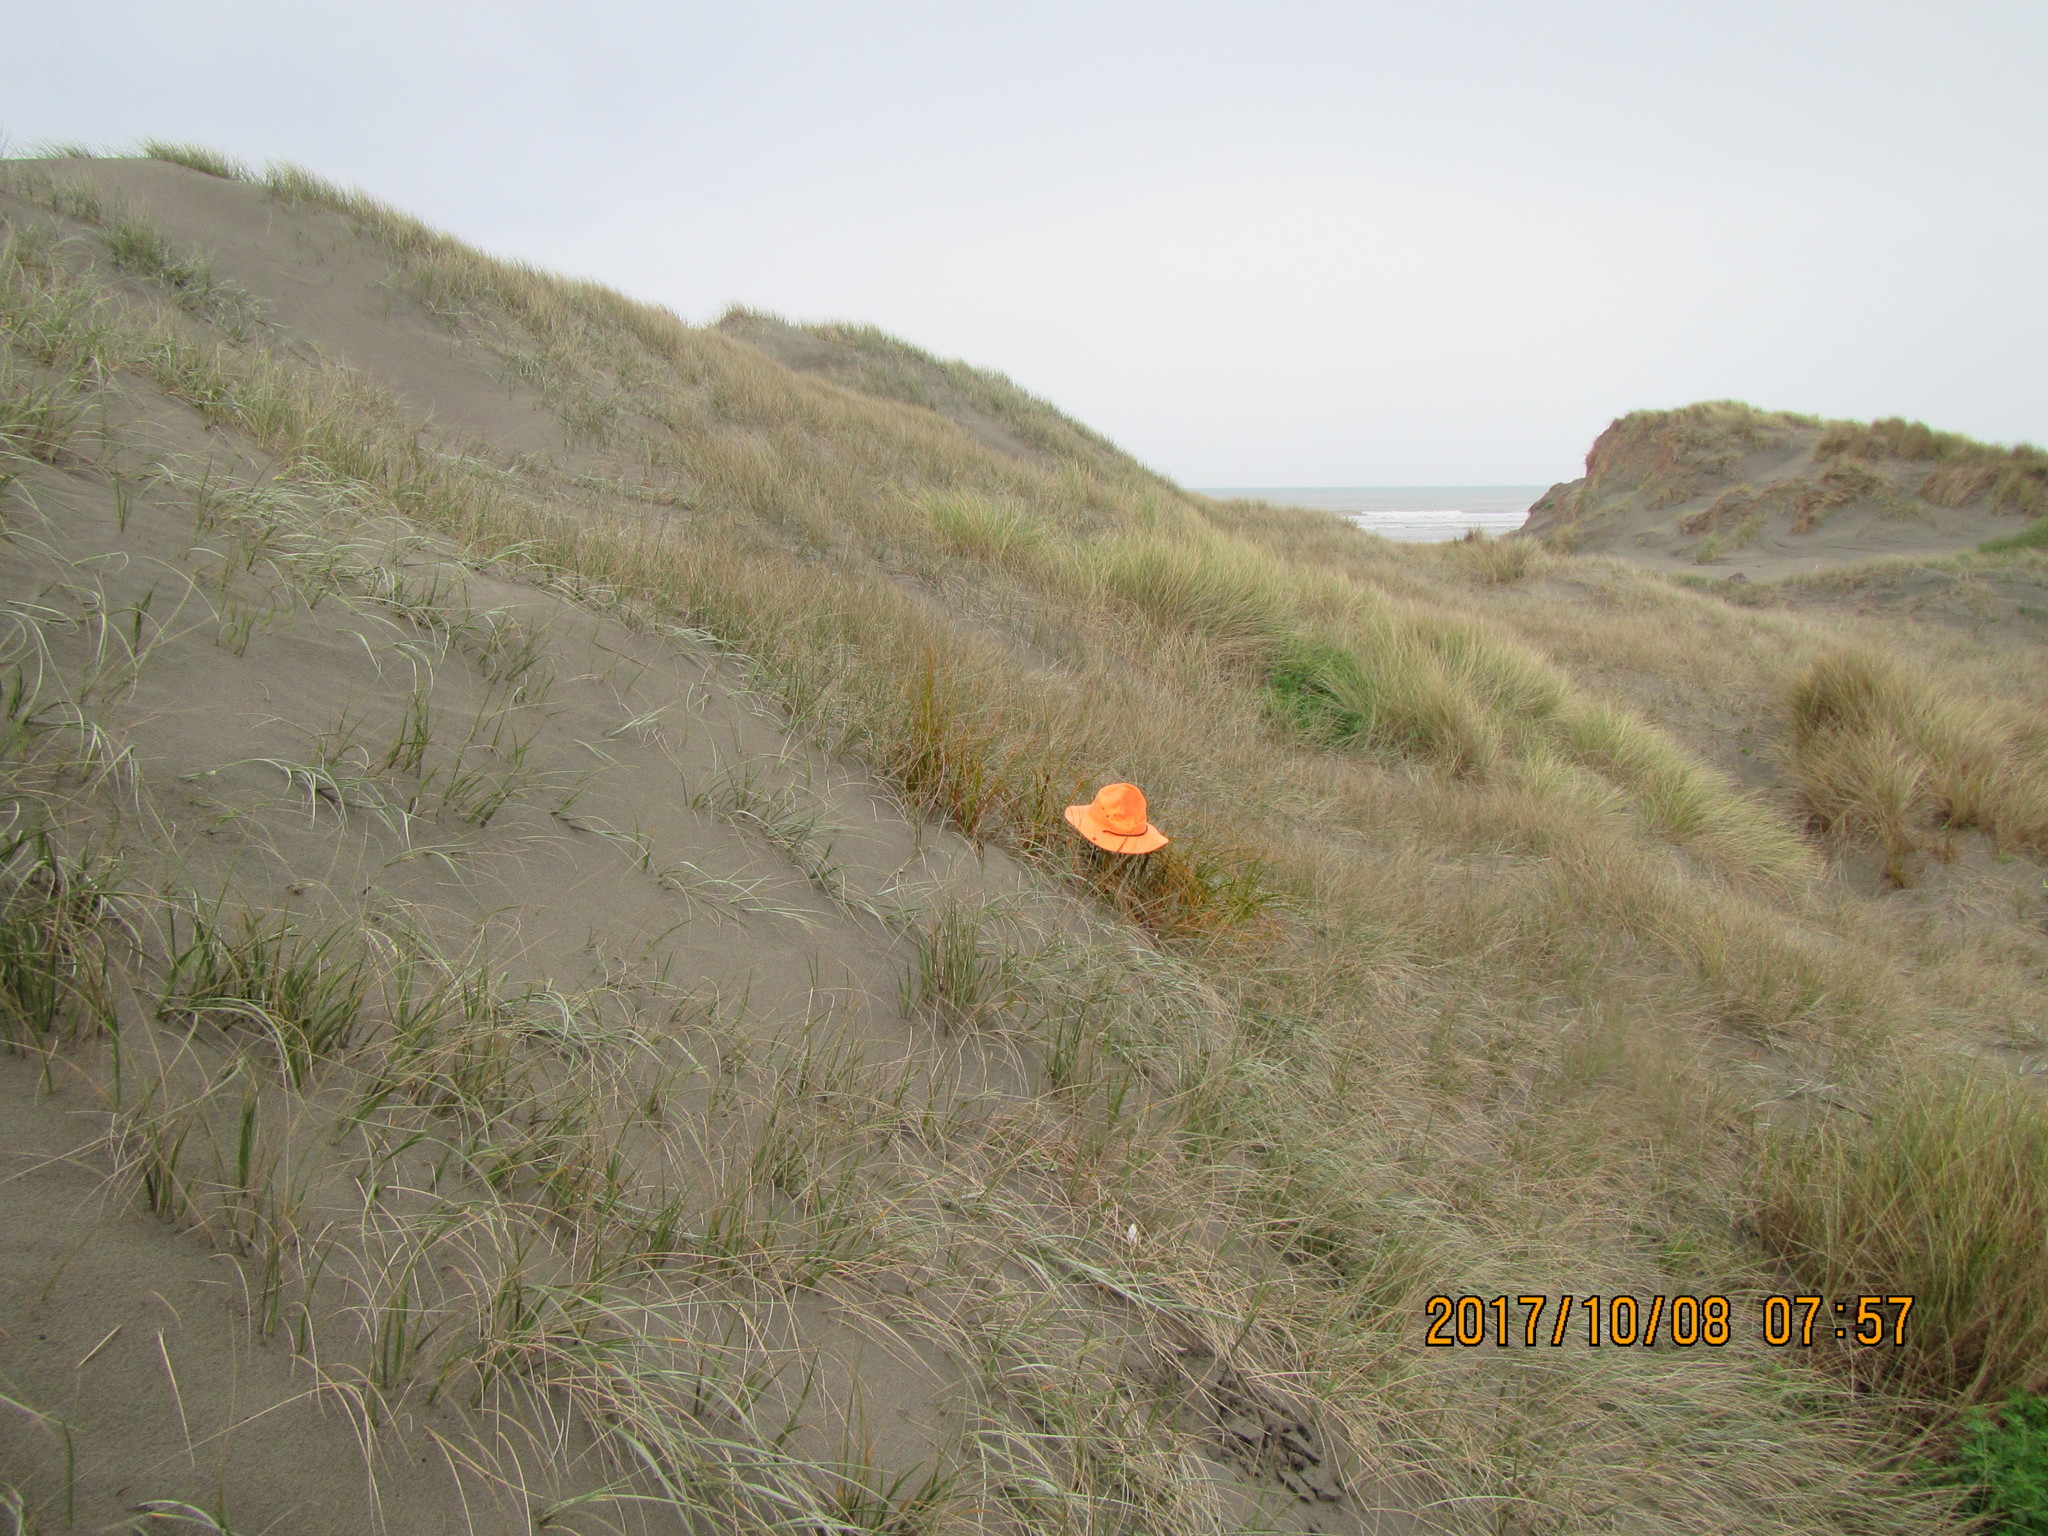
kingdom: Plantae
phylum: Tracheophyta
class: Liliopsida
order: Poales
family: Cyperaceae
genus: Ficinia
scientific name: Ficinia spiralis
